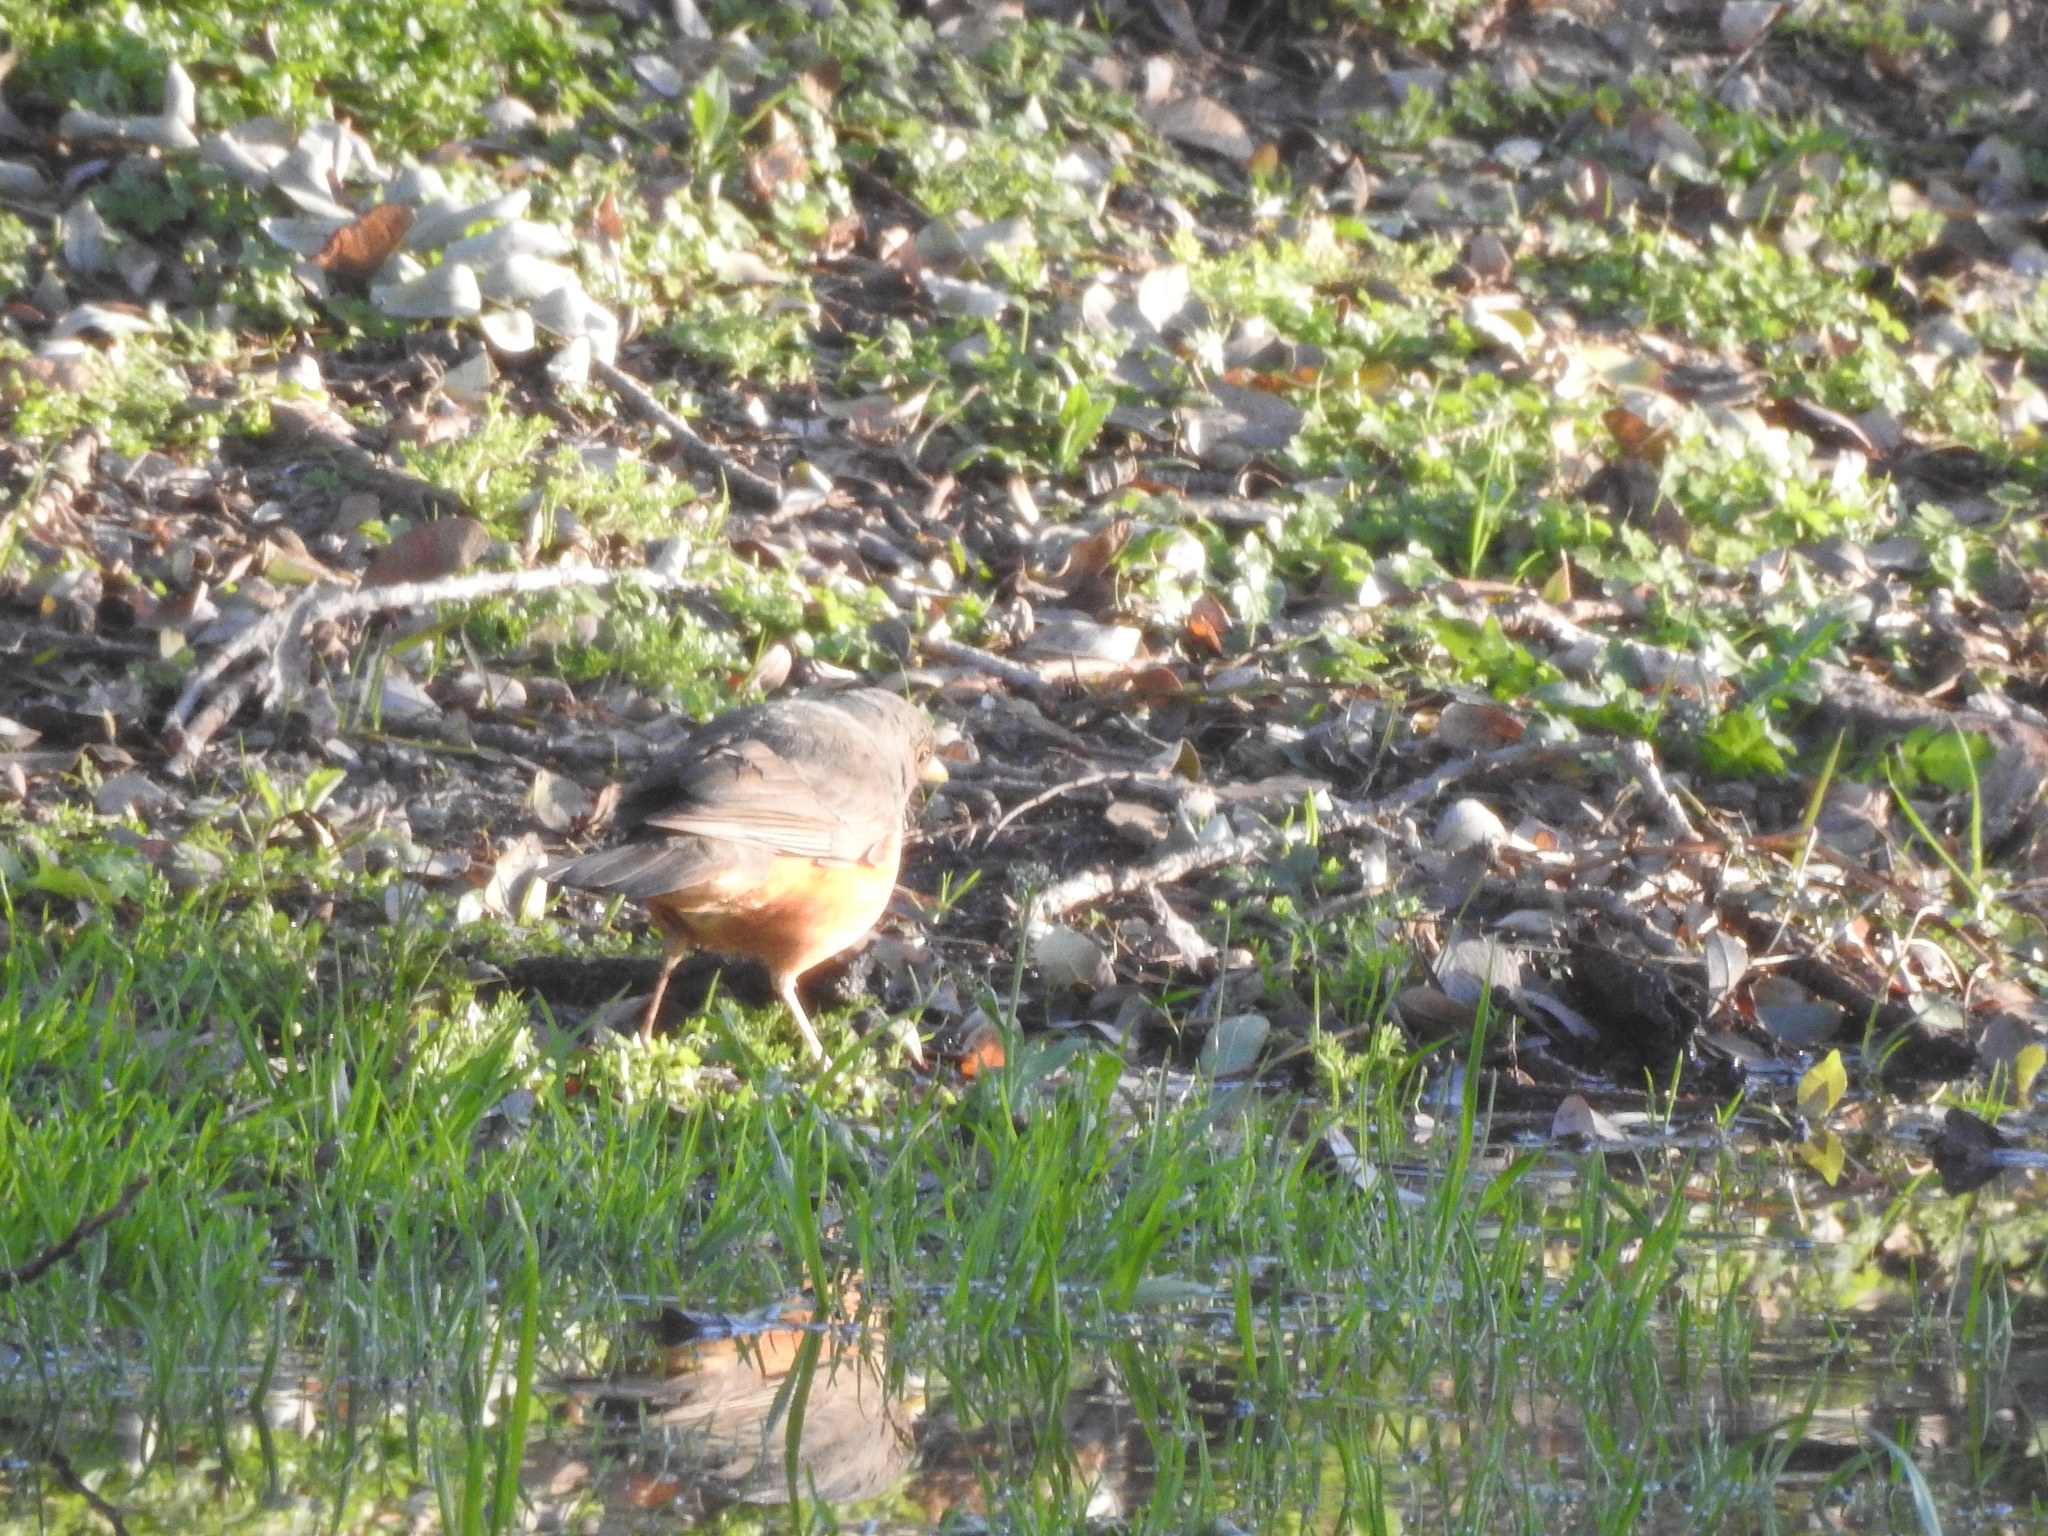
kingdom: Animalia
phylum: Chordata
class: Aves
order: Passeriformes
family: Turdidae
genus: Turdus
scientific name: Turdus rufiventris
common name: Rufous-bellied thrush
